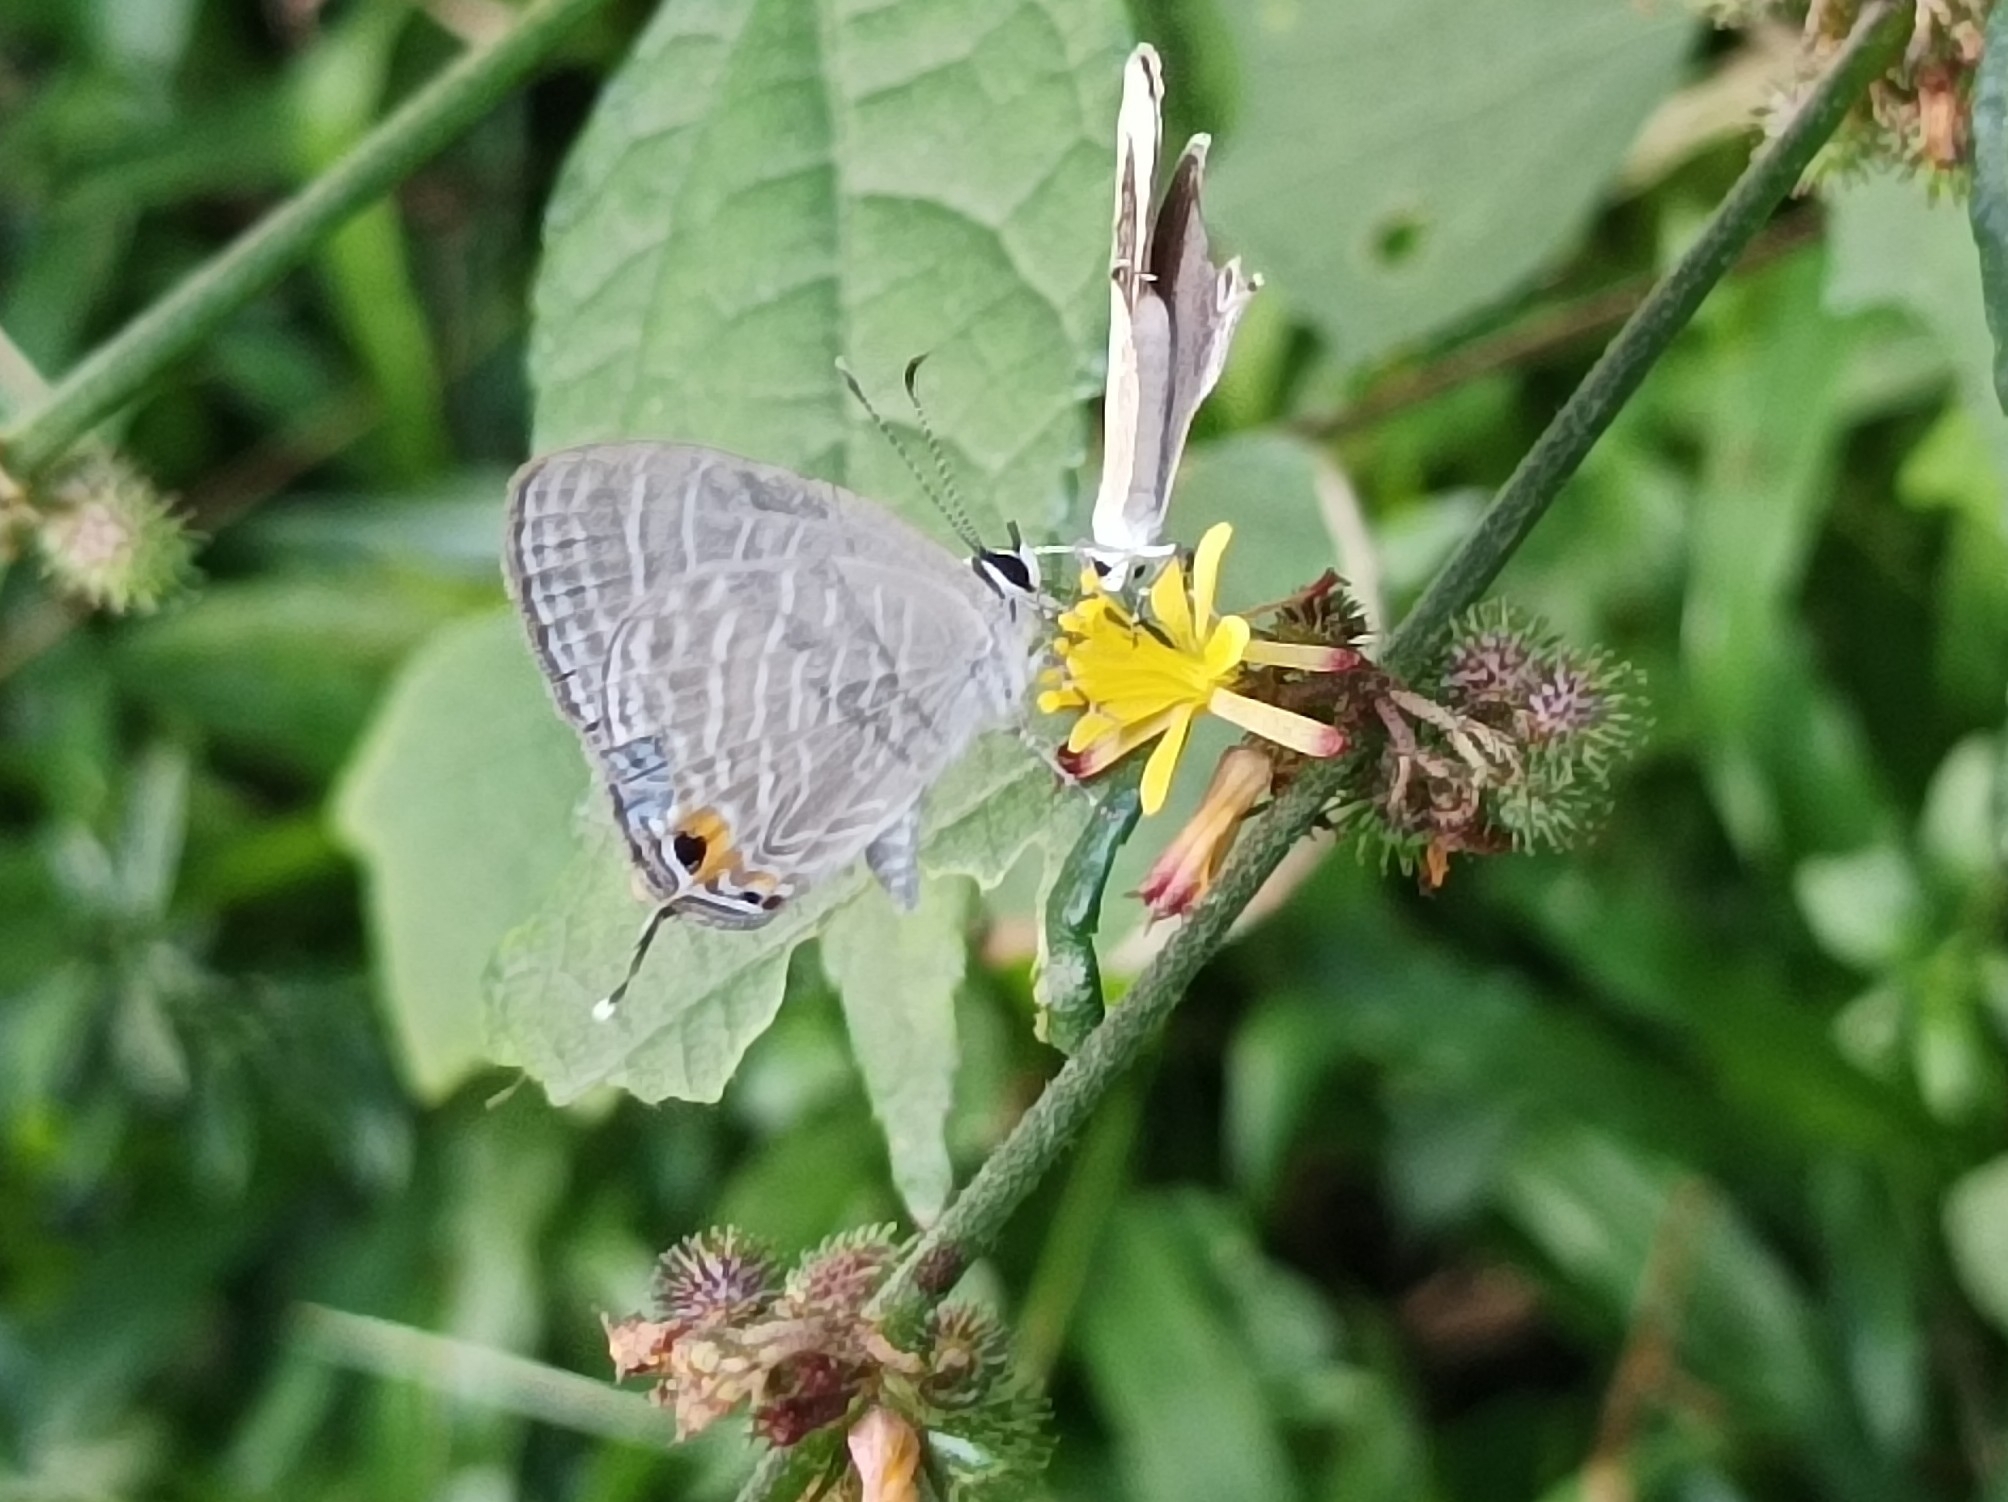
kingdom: Animalia
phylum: Arthropoda
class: Insecta
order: Lepidoptera
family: Lycaenidae
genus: Jamides
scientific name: Jamides celeno
